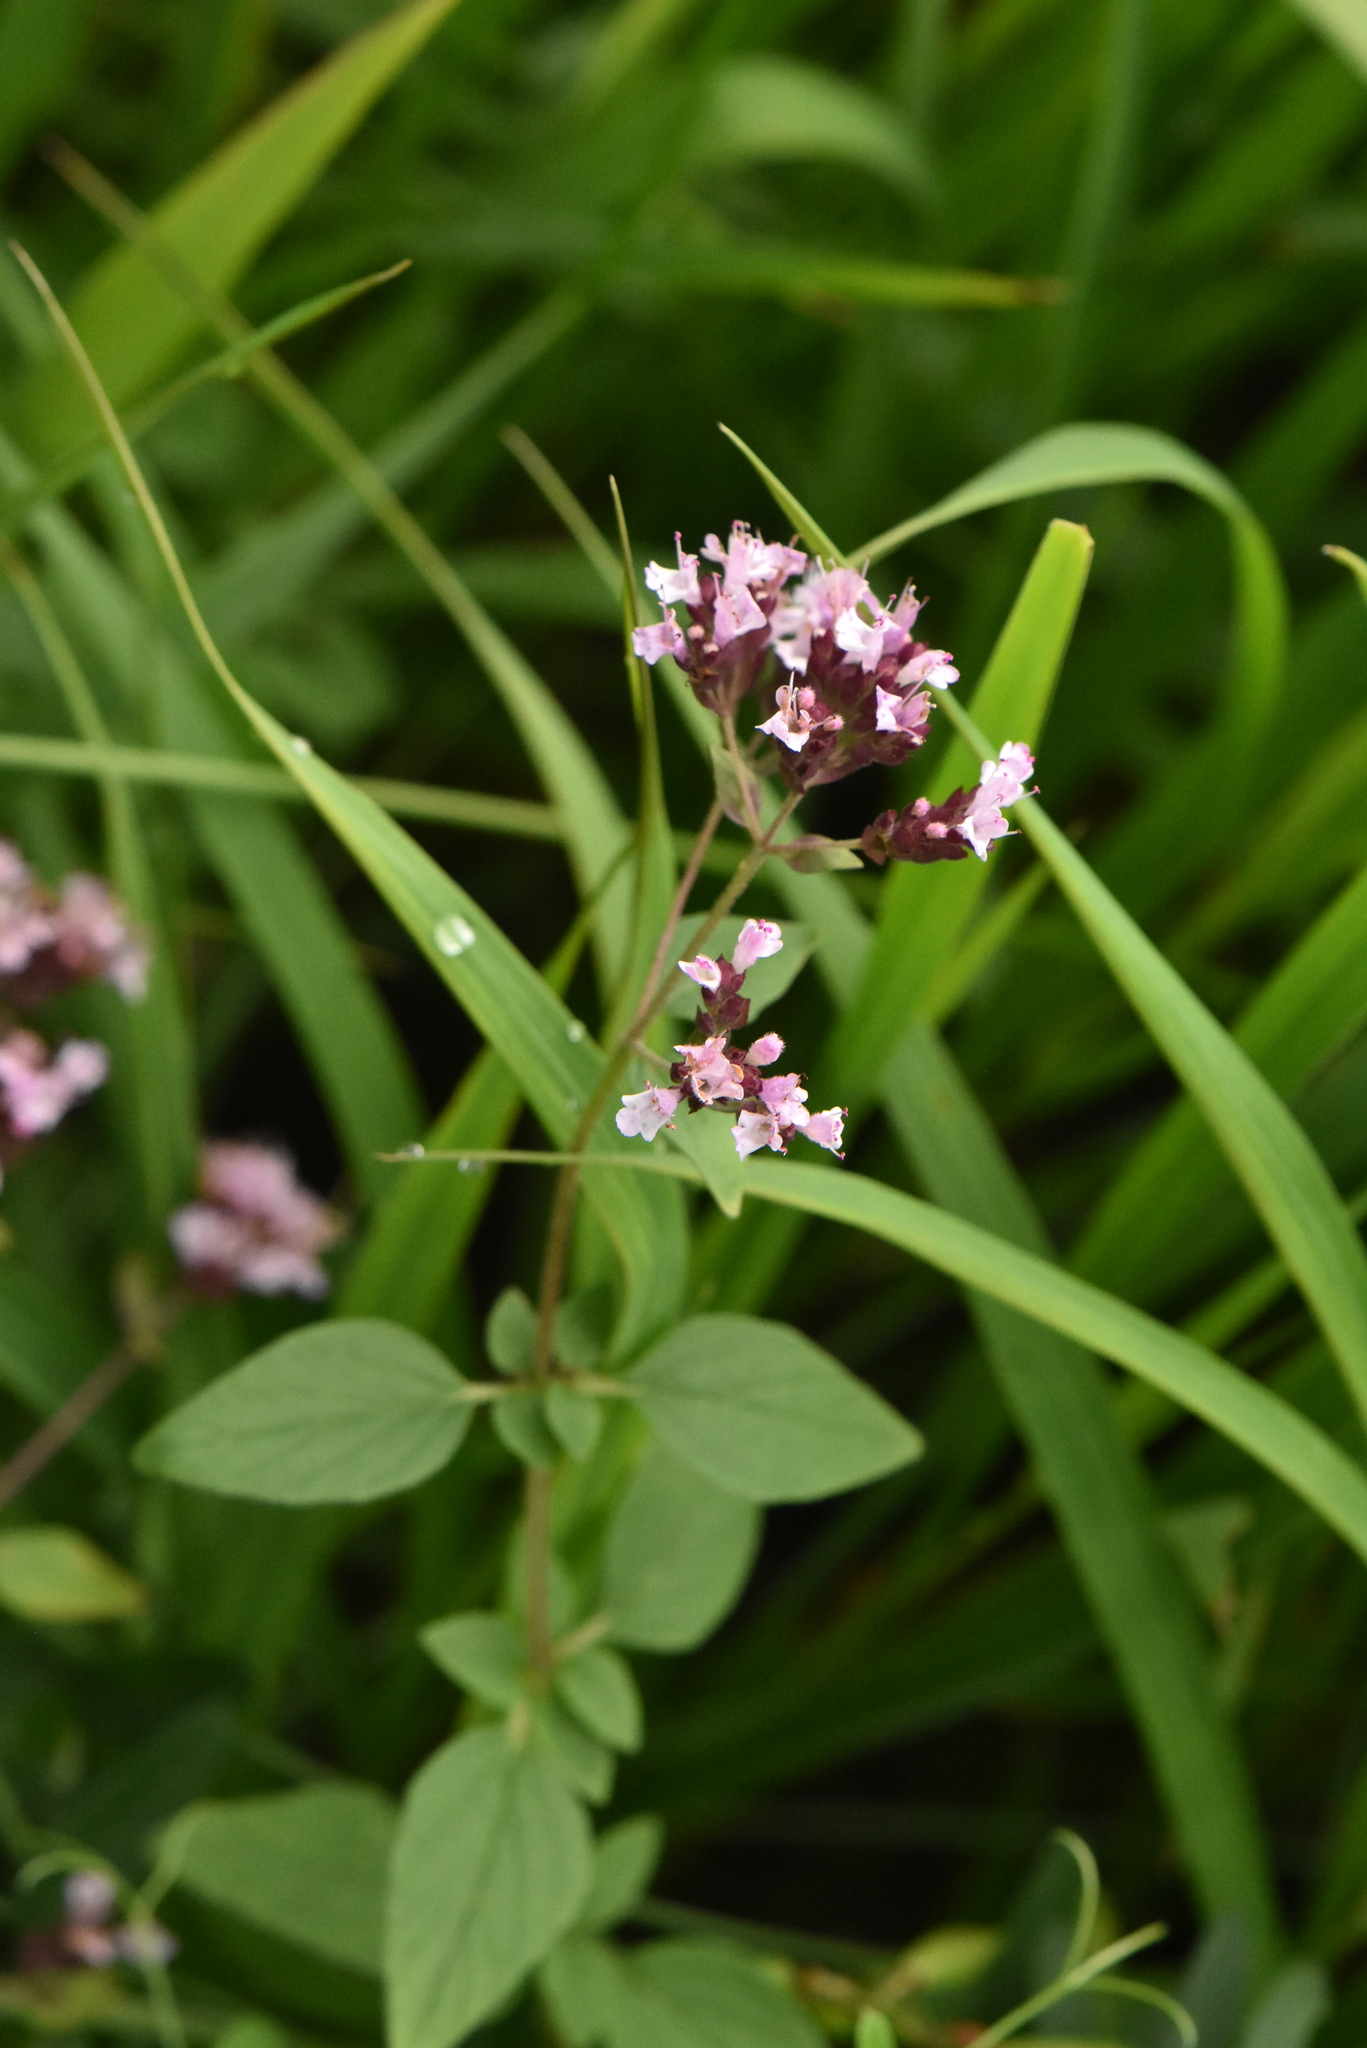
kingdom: Plantae
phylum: Tracheophyta
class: Magnoliopsida
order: Lamiales
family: Lamiaceae
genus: Origanum
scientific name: Origanum vulgare
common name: Wild marjoram
